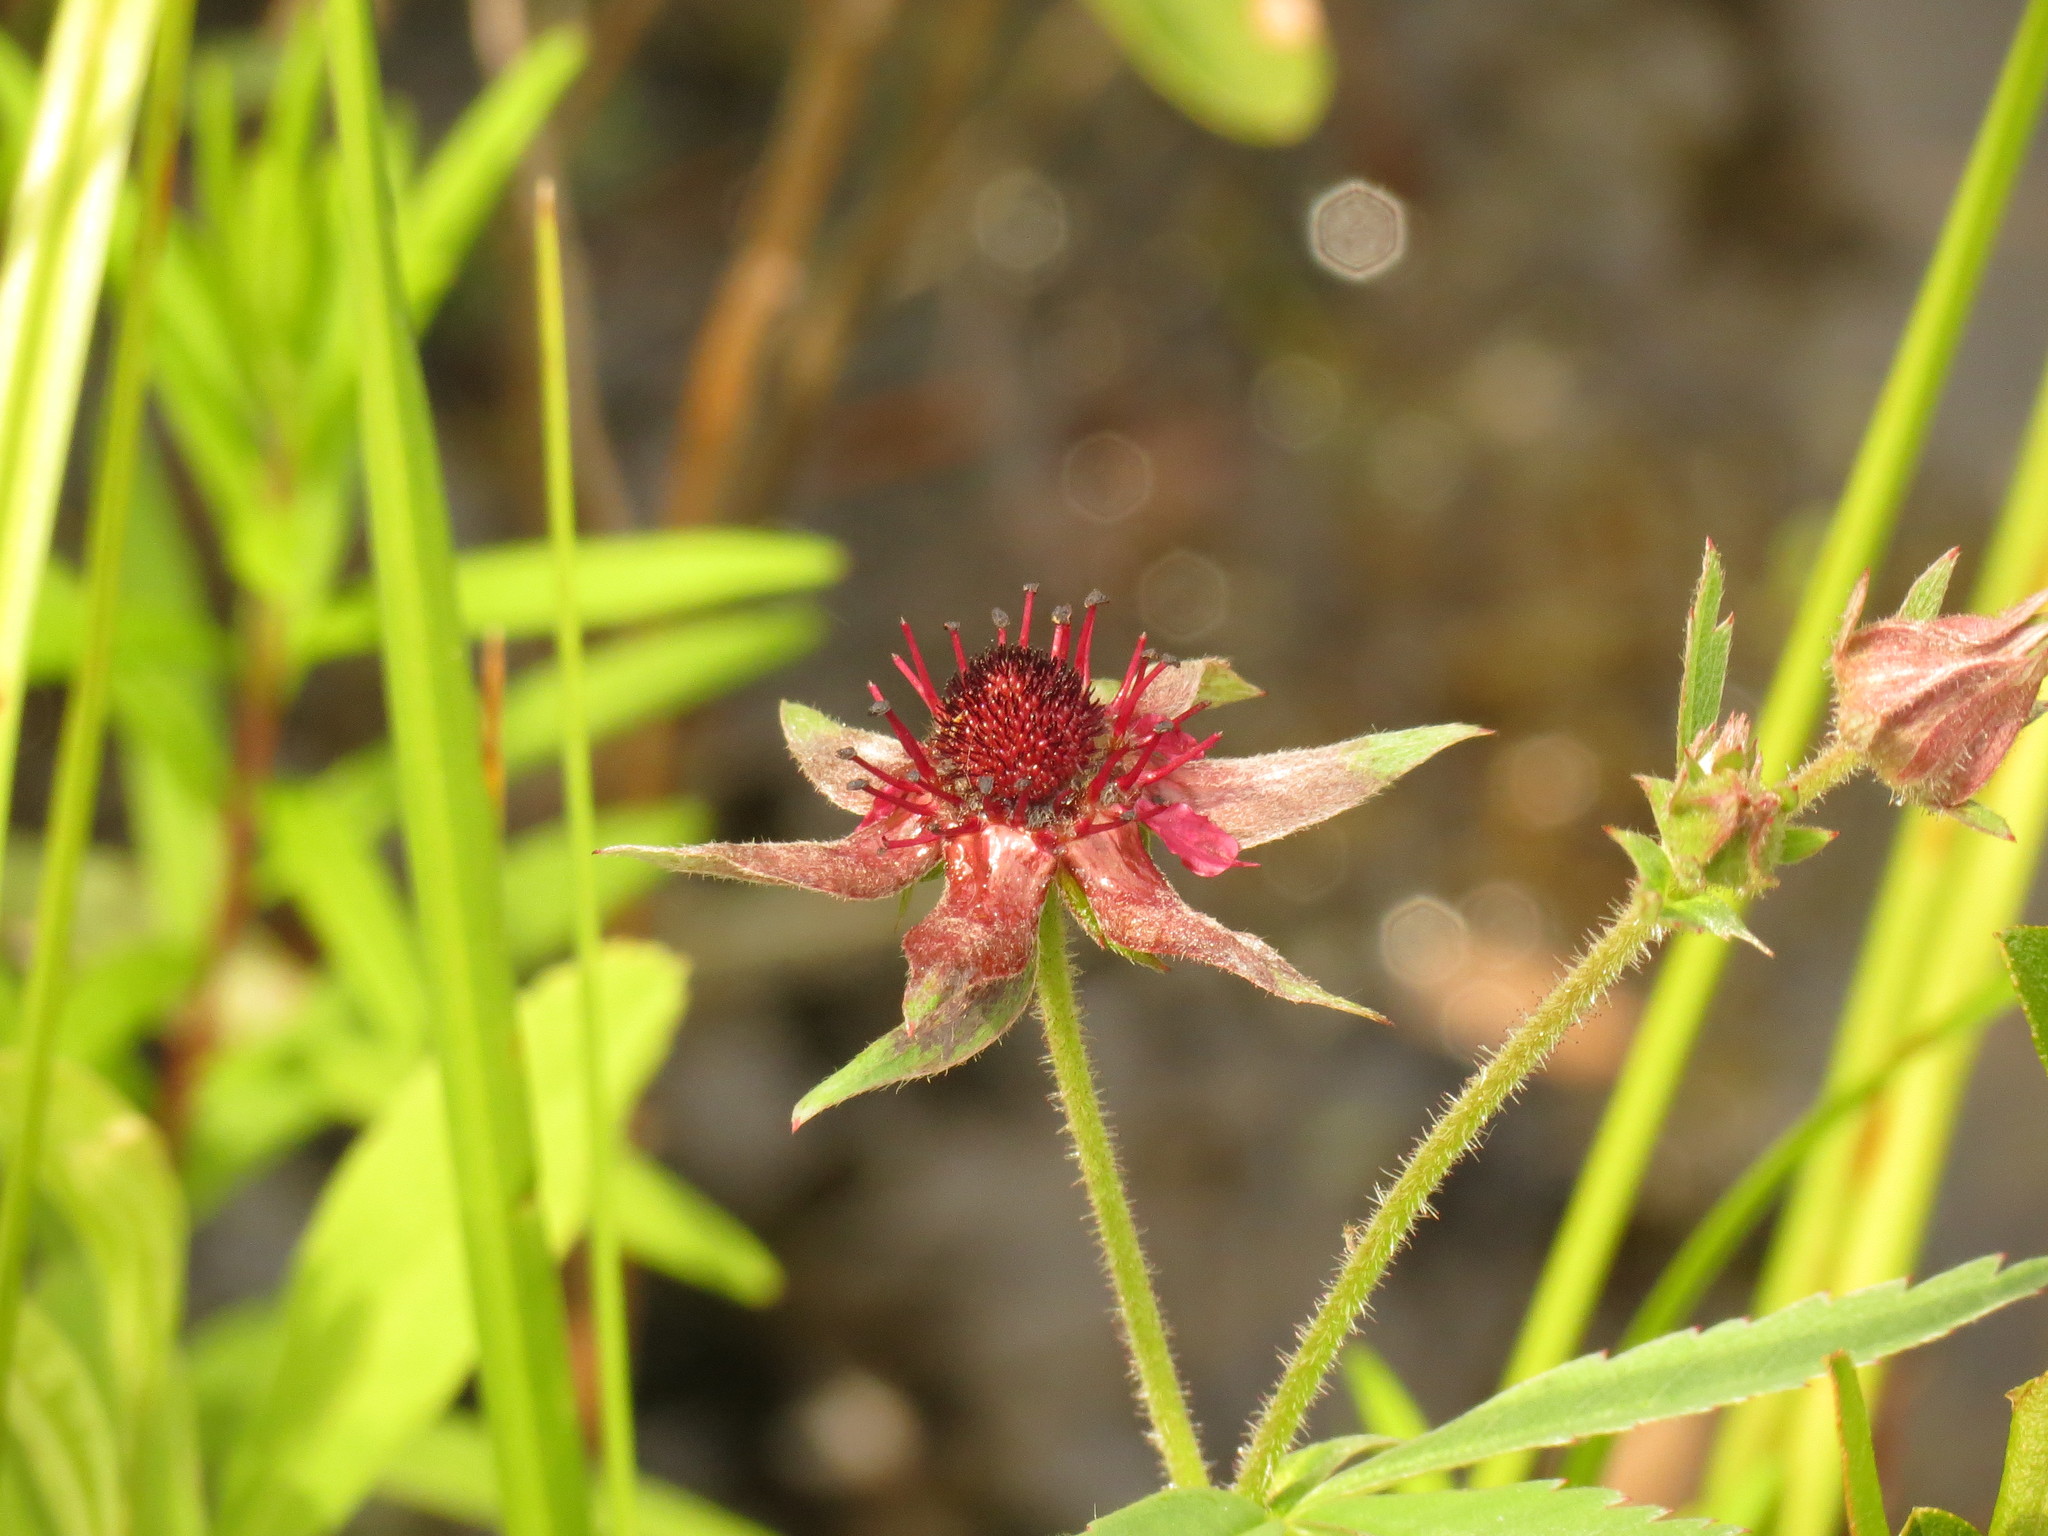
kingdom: Plantae
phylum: Tracheophyta
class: Magnoliopsida
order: Rosales
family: Rosaceae
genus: Comarum
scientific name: Comarum palustre
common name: Marsh cinquefoil
